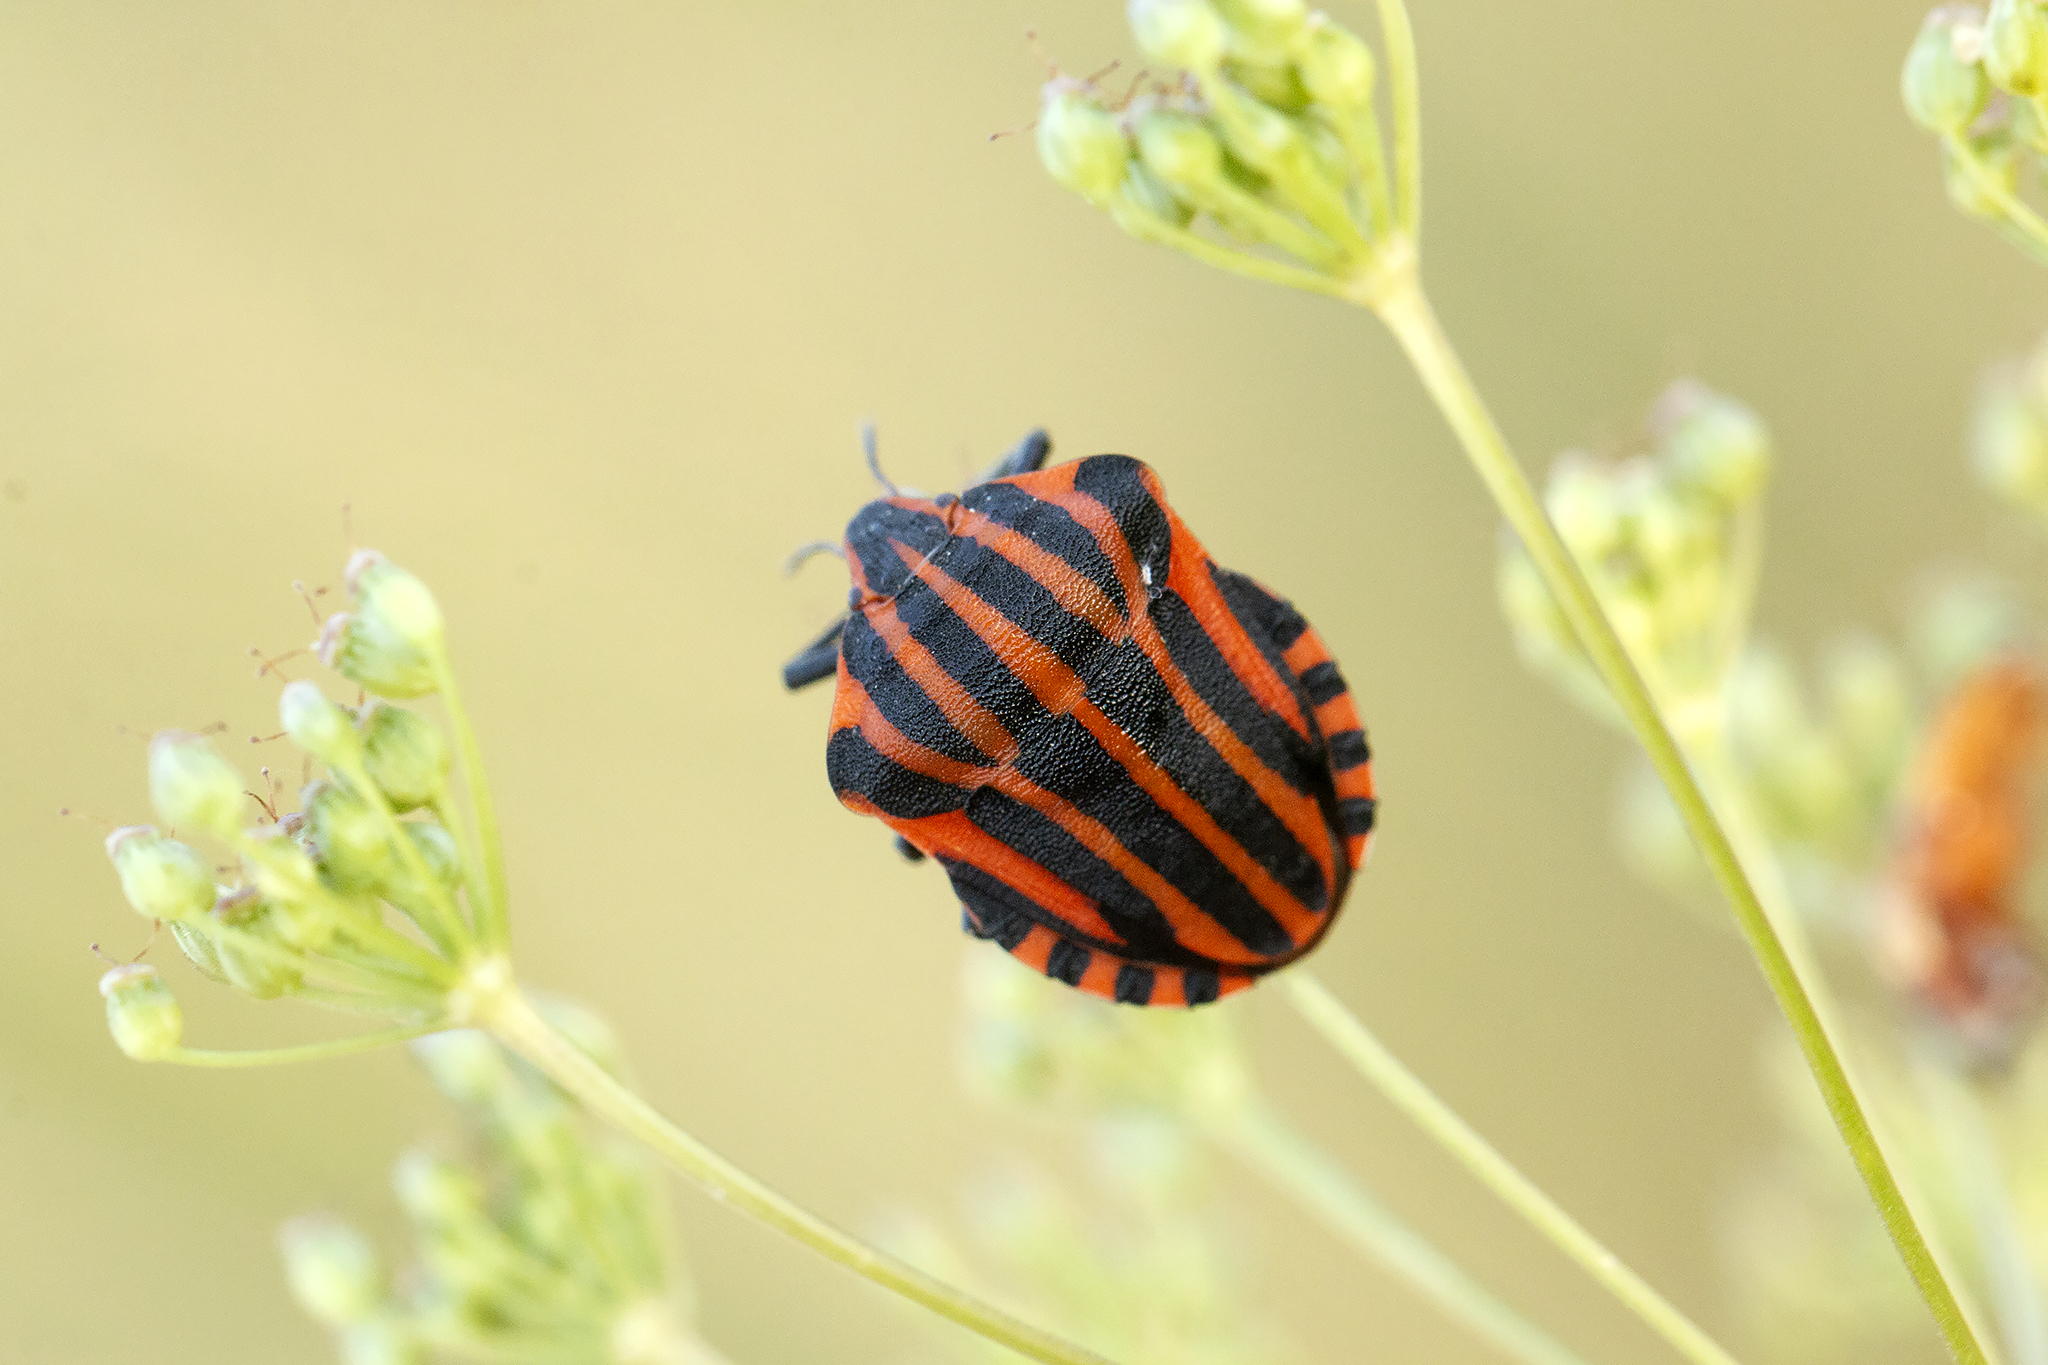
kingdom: Animalia
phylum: Arthropoda
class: Insecta
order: Hemiptera
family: Pentatomidae
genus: Graphosoma
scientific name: Graphosoma italicum
